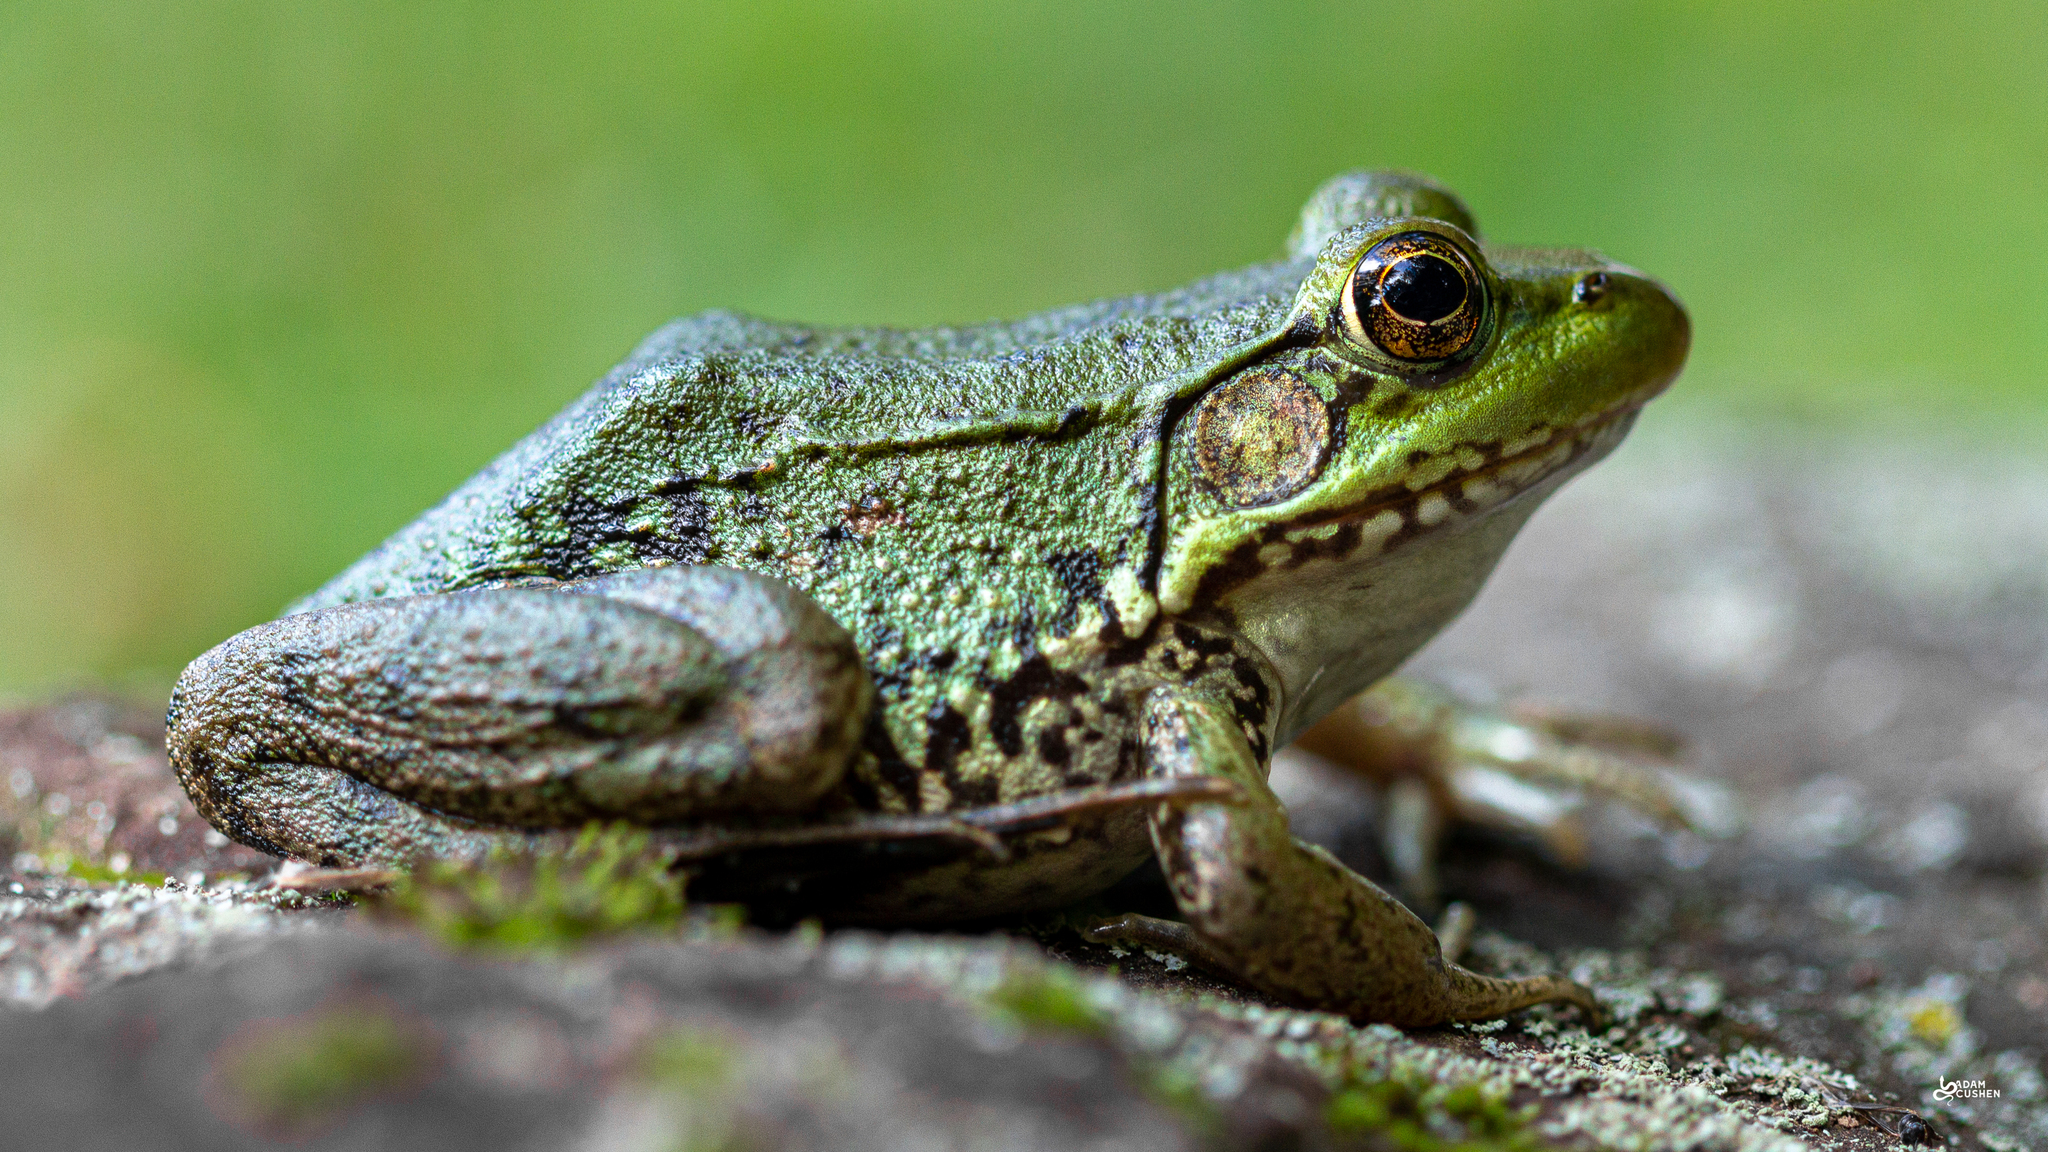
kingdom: Animalia
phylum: Chordata
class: Amphibia
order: Anura
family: Ranidae
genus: Lithobates
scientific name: Lithobates clamitans
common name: Green frog
